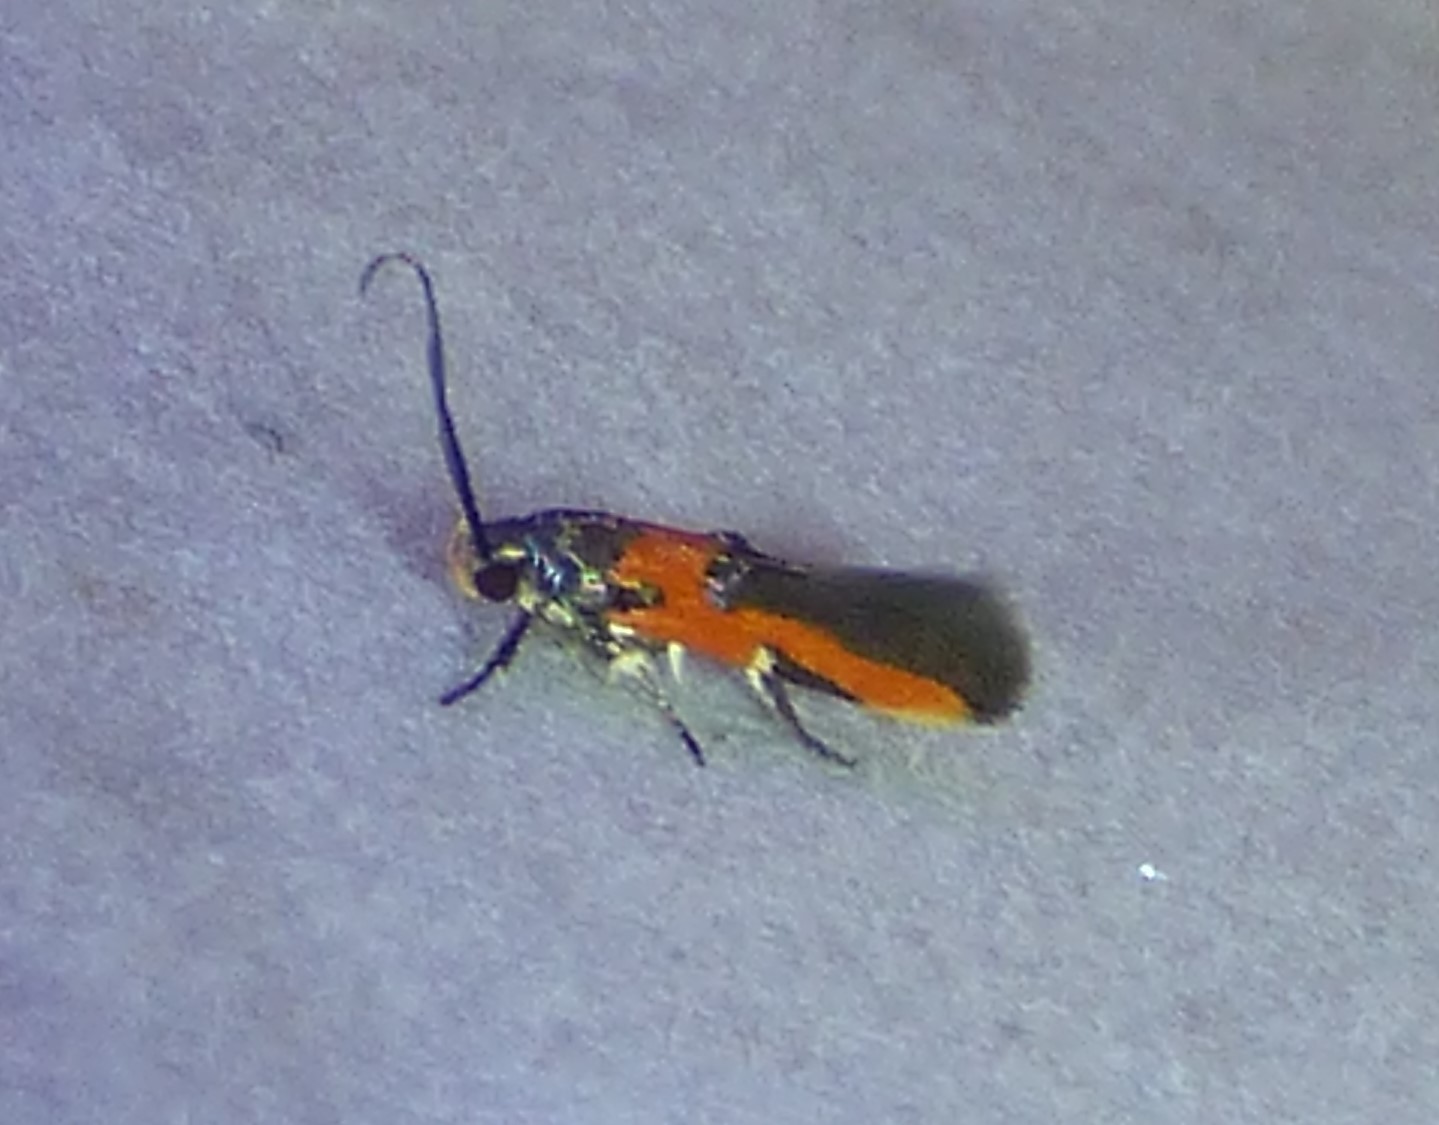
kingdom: Animalia
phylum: Arthropoda
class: Insecta
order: Lepidoptera
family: Cosmopterigidae
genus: Euclemensia
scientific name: Euclemensia bassettella
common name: Kermes scale moth
